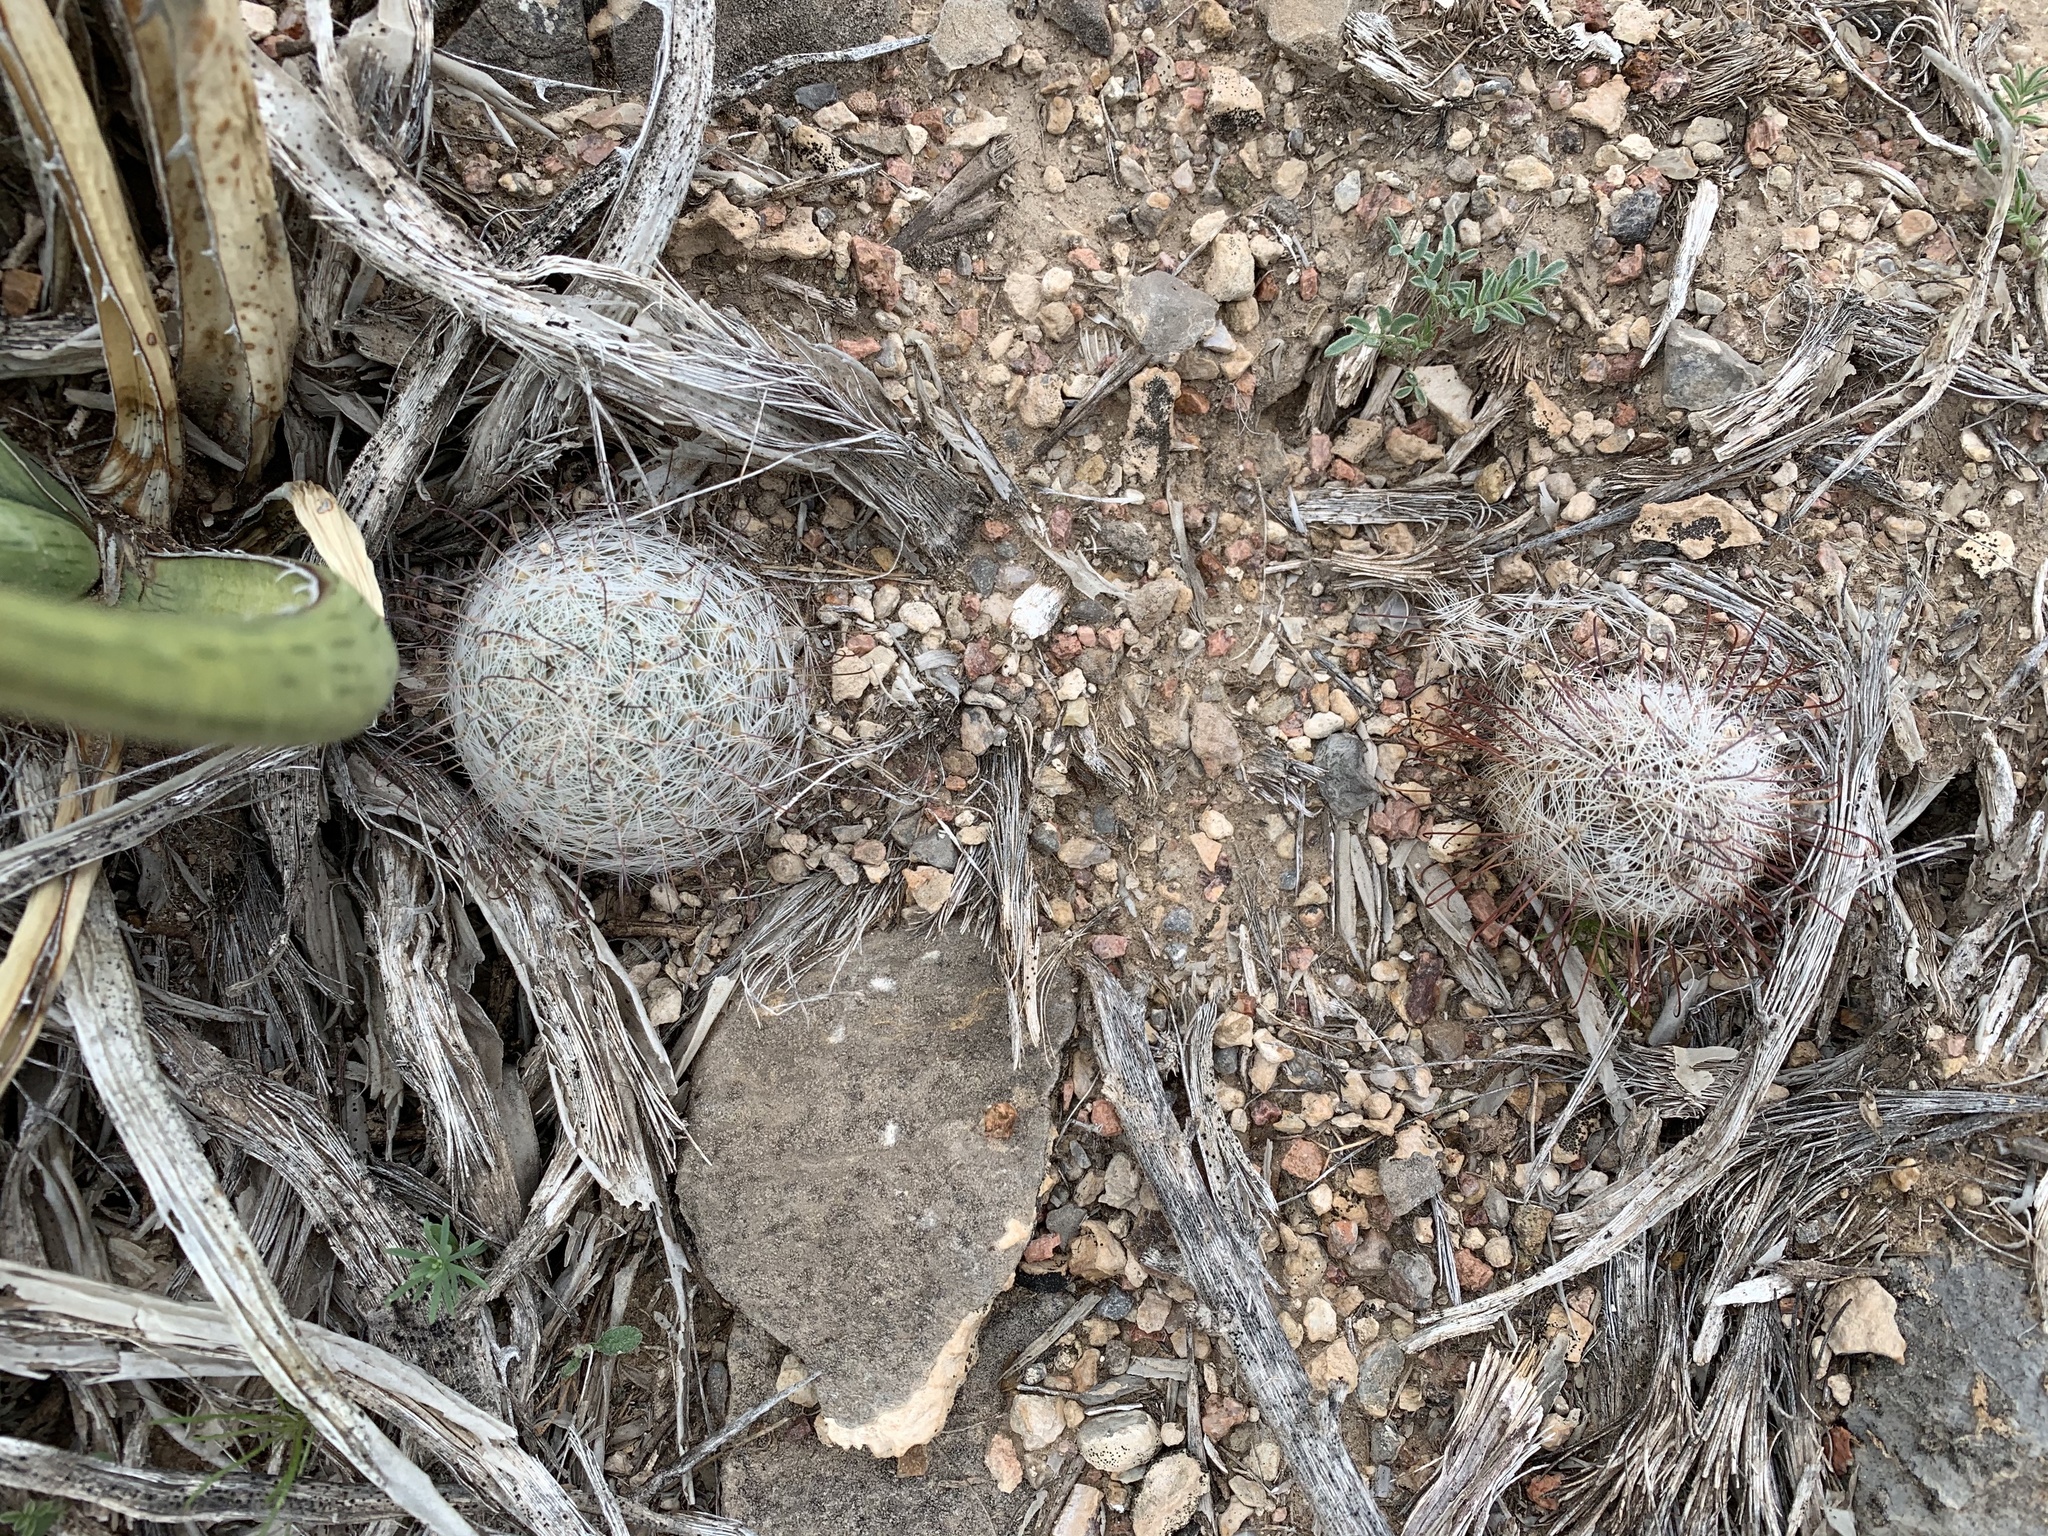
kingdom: Plantae
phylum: Tracheophyta
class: Magnoliopsida
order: Caryophyllales
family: Cactaceae
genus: Cochemiea
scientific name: Cochemiea grahamii
